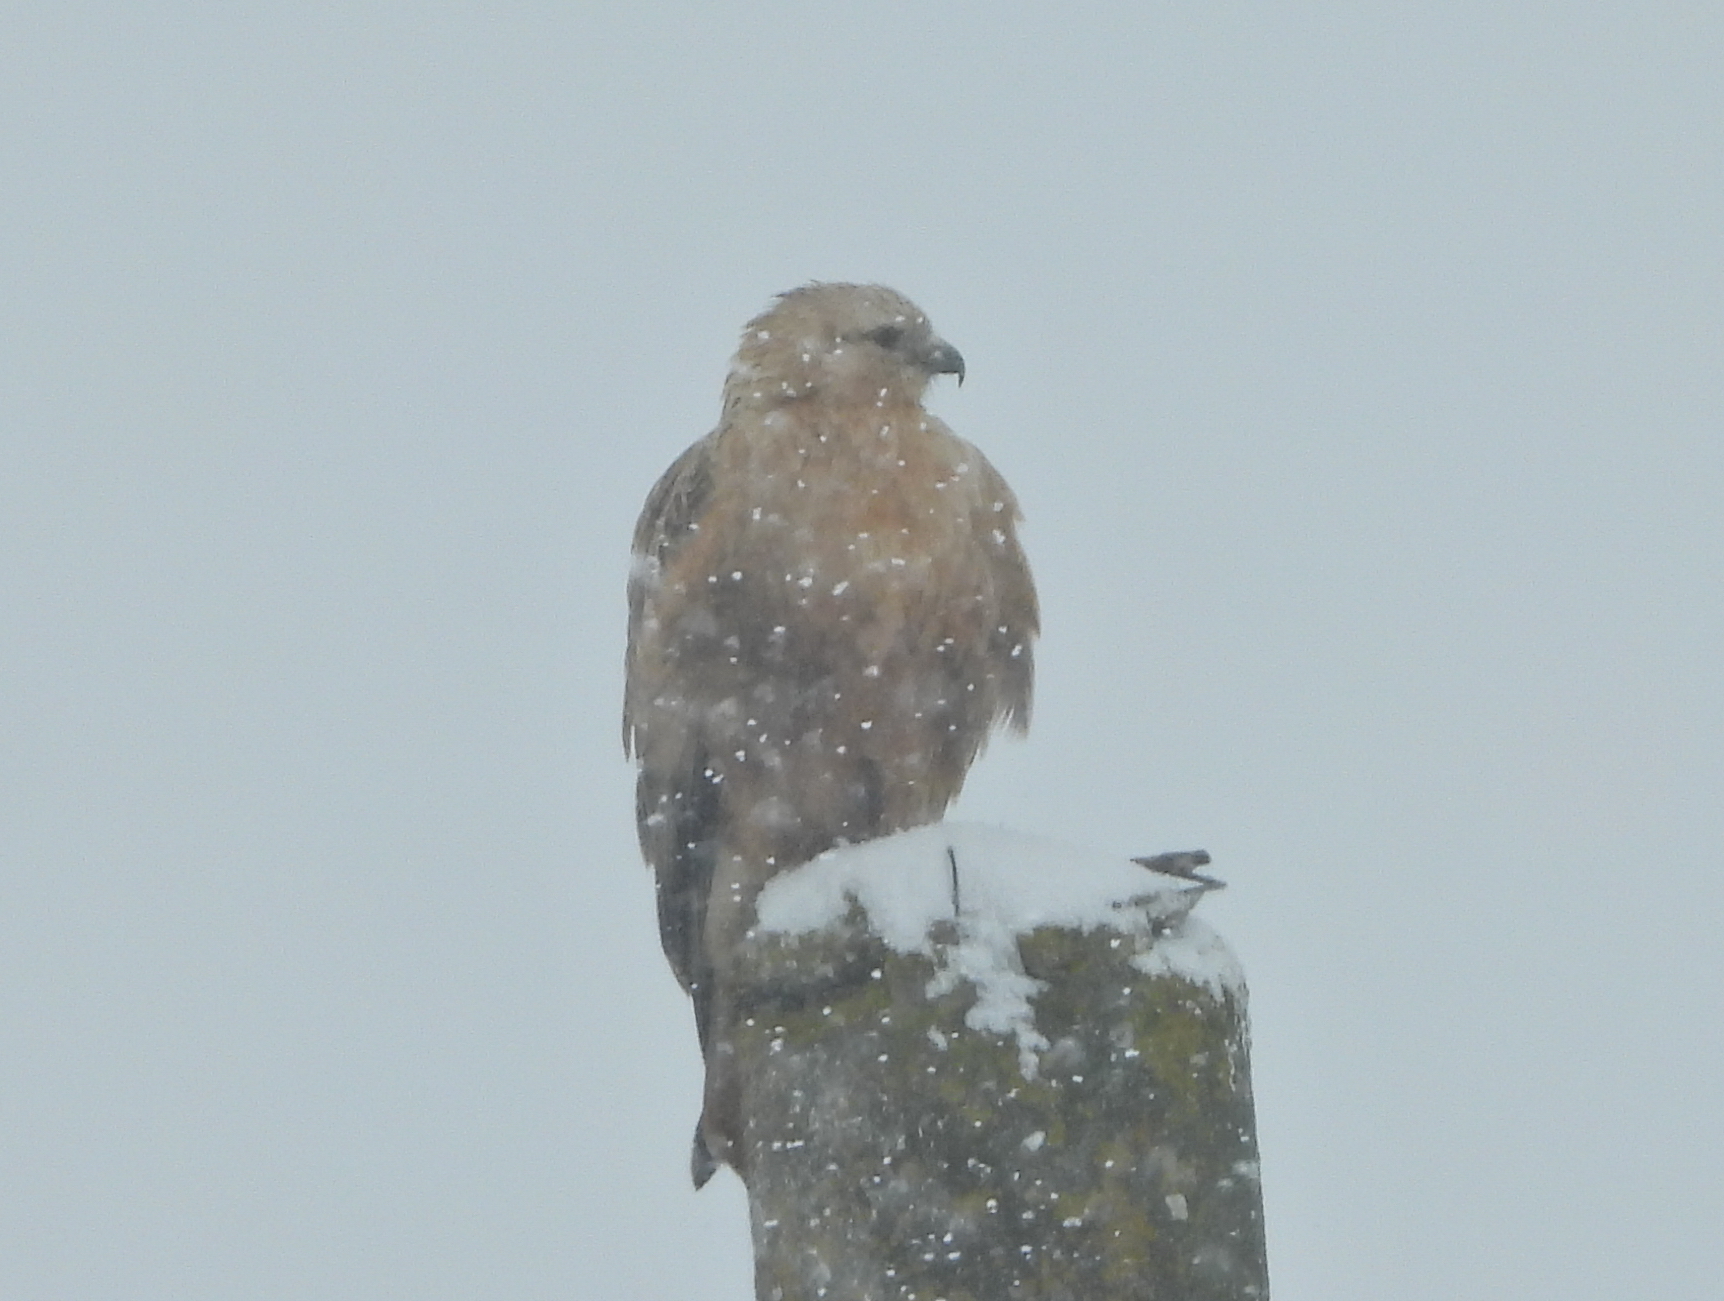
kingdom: Animalia
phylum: Chordata
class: Aves
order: Accipitriformes
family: Accipitridae
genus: Buteo
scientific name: Buteo rufinus
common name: Long-legged buzzard
